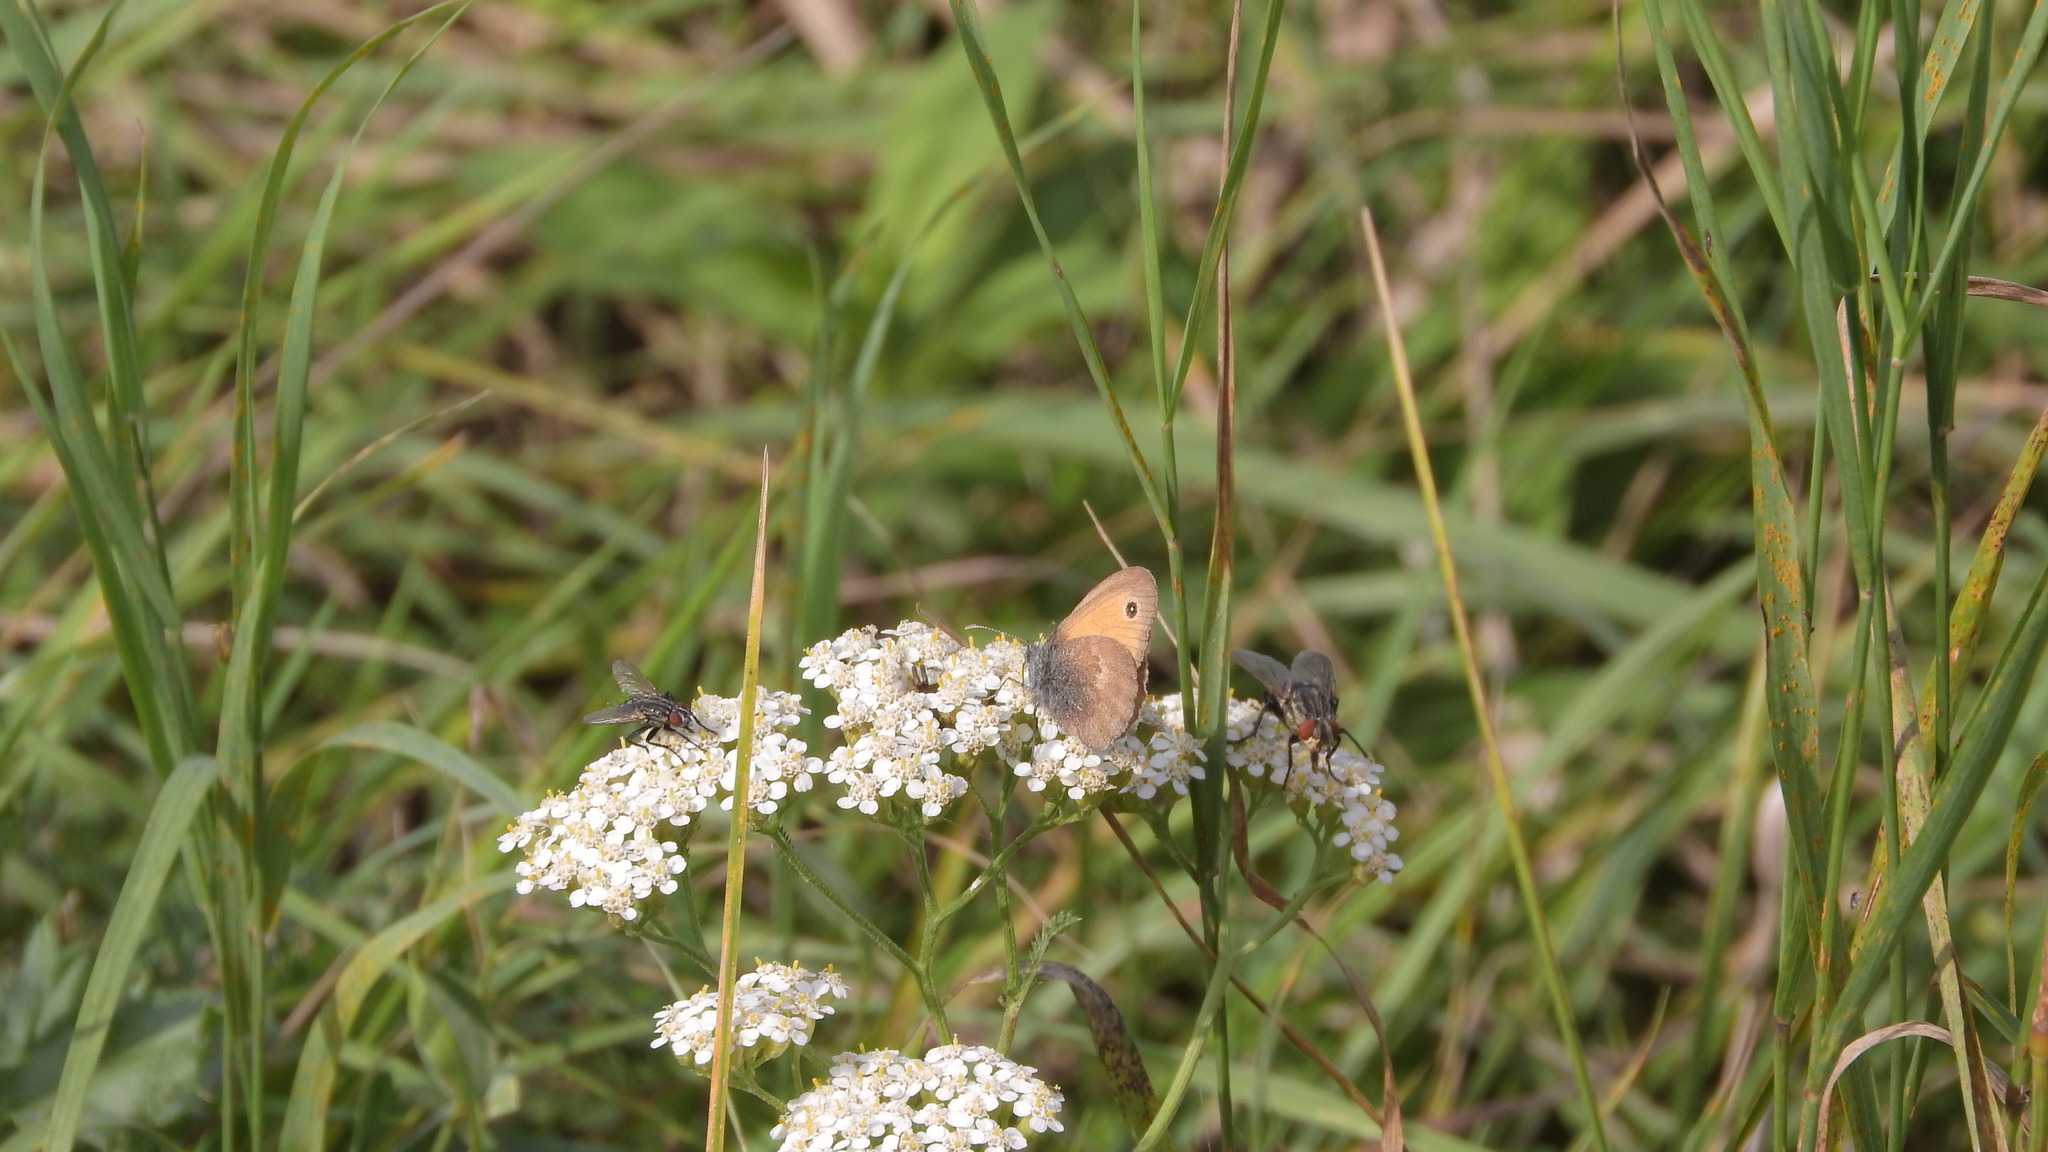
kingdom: Animalia
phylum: Arthropoda
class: Insecta
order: Lepidoptera
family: Nymphalidae
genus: Coenonympha
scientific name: Coenonympha pamphilus
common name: Small heath
